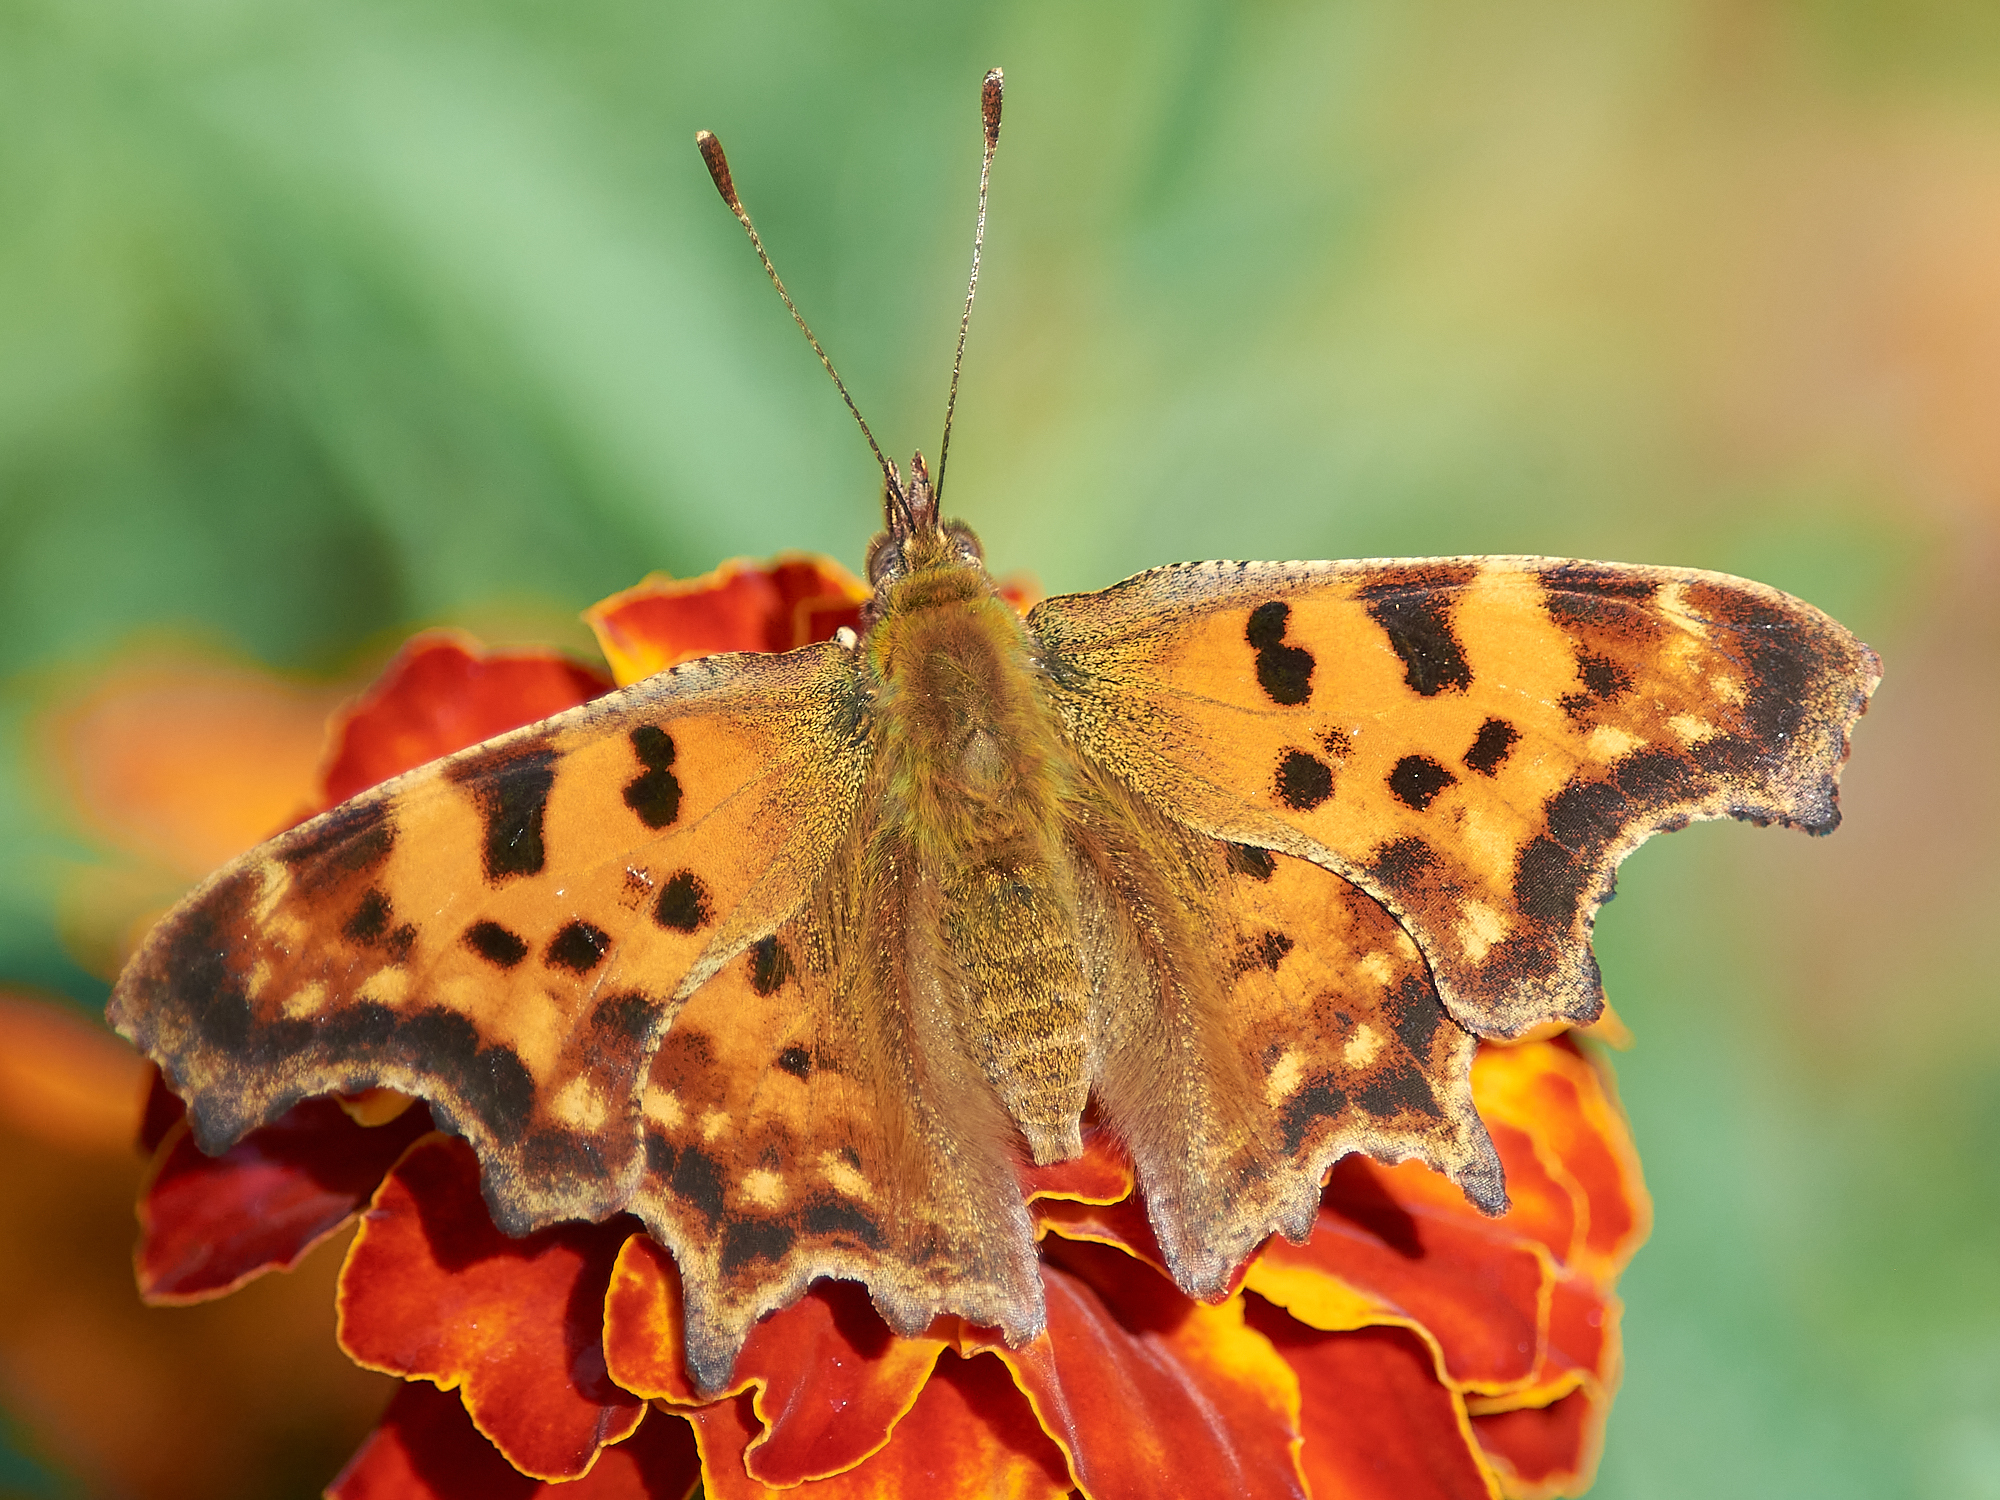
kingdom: Animalia
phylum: Arthropoda
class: Insecta
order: Lepidoptera
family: Nymphalidae
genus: Polygonia
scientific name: Polygonia c-album
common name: Comma
